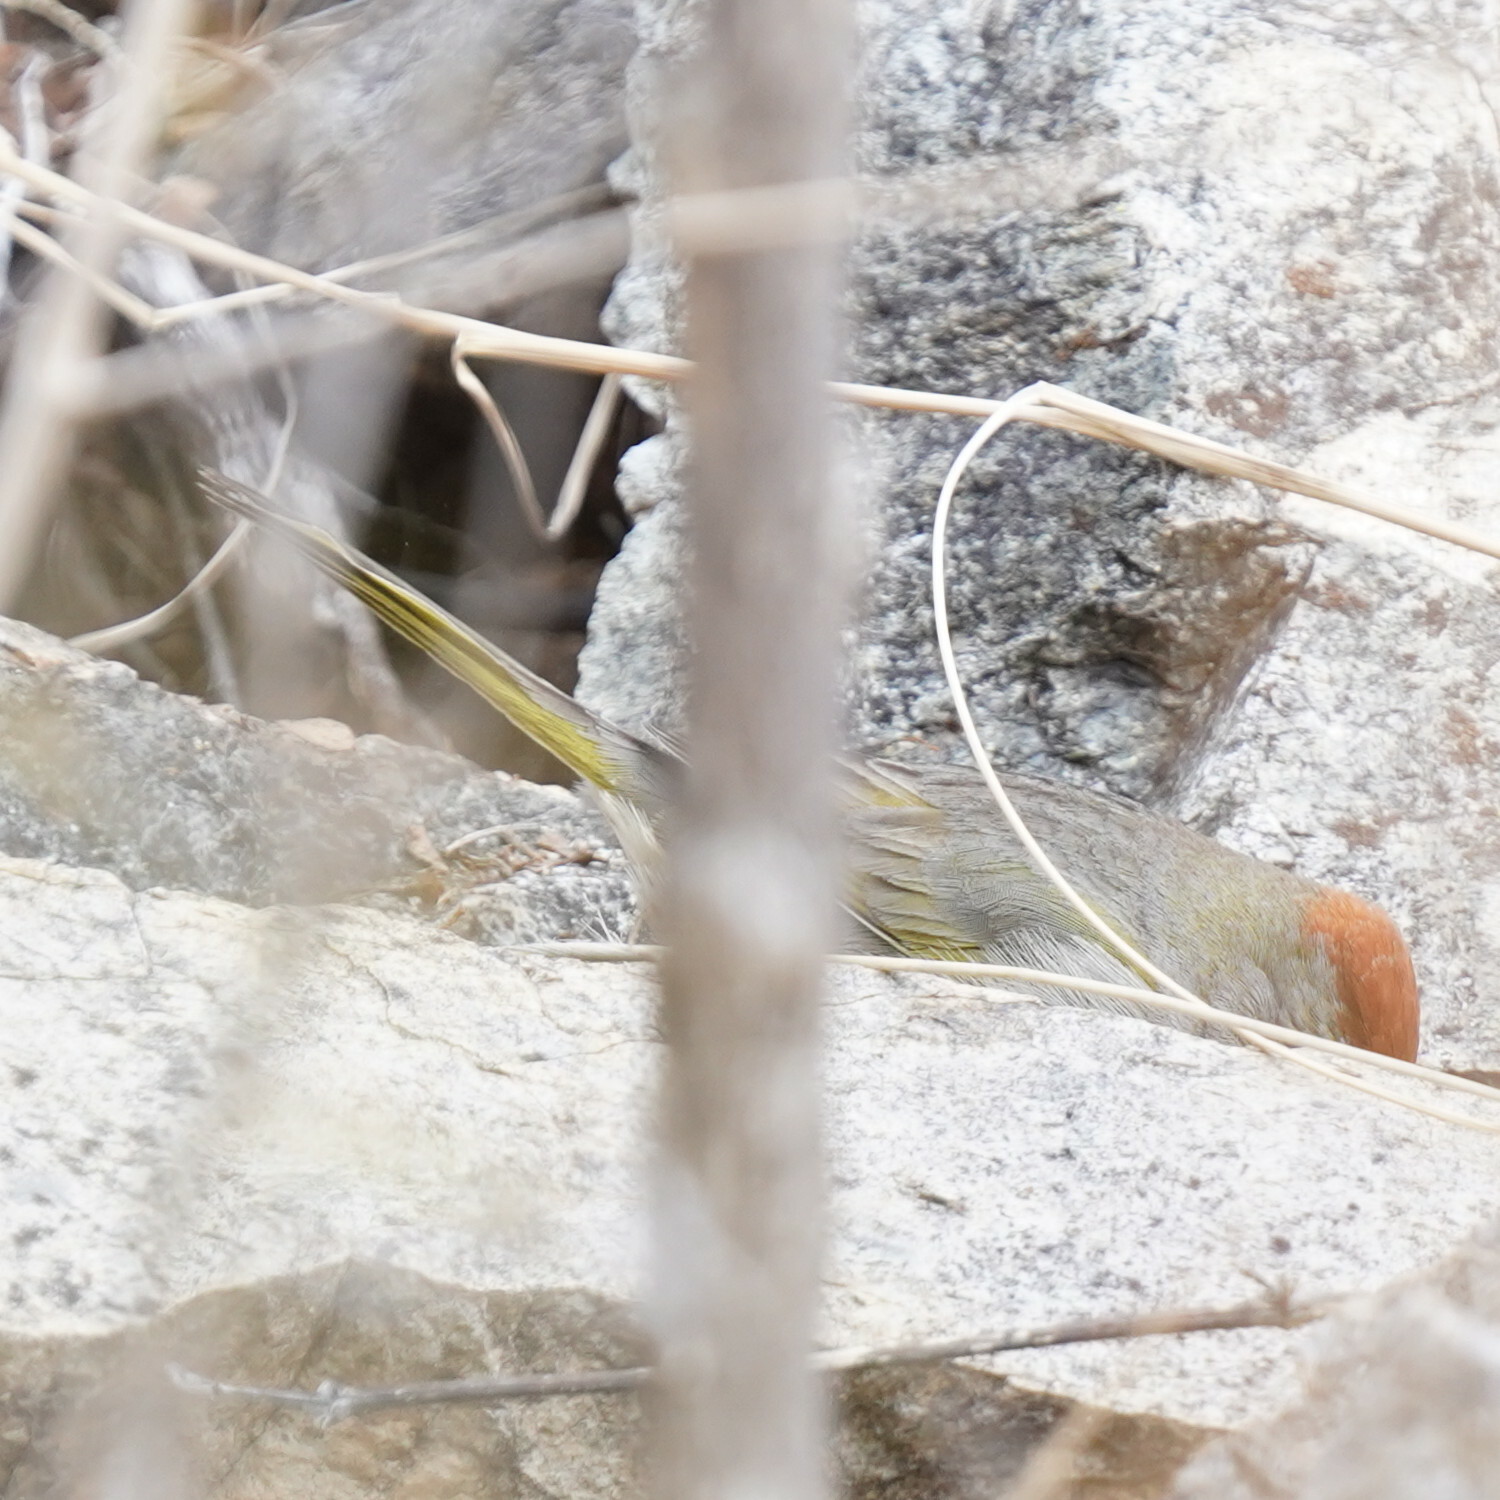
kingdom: Animalia
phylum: Chordata
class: Aves
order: Passeriformes
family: Passerellidae
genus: Pipilo
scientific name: Pipilo chlorurus
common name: Green-tailed towhee
